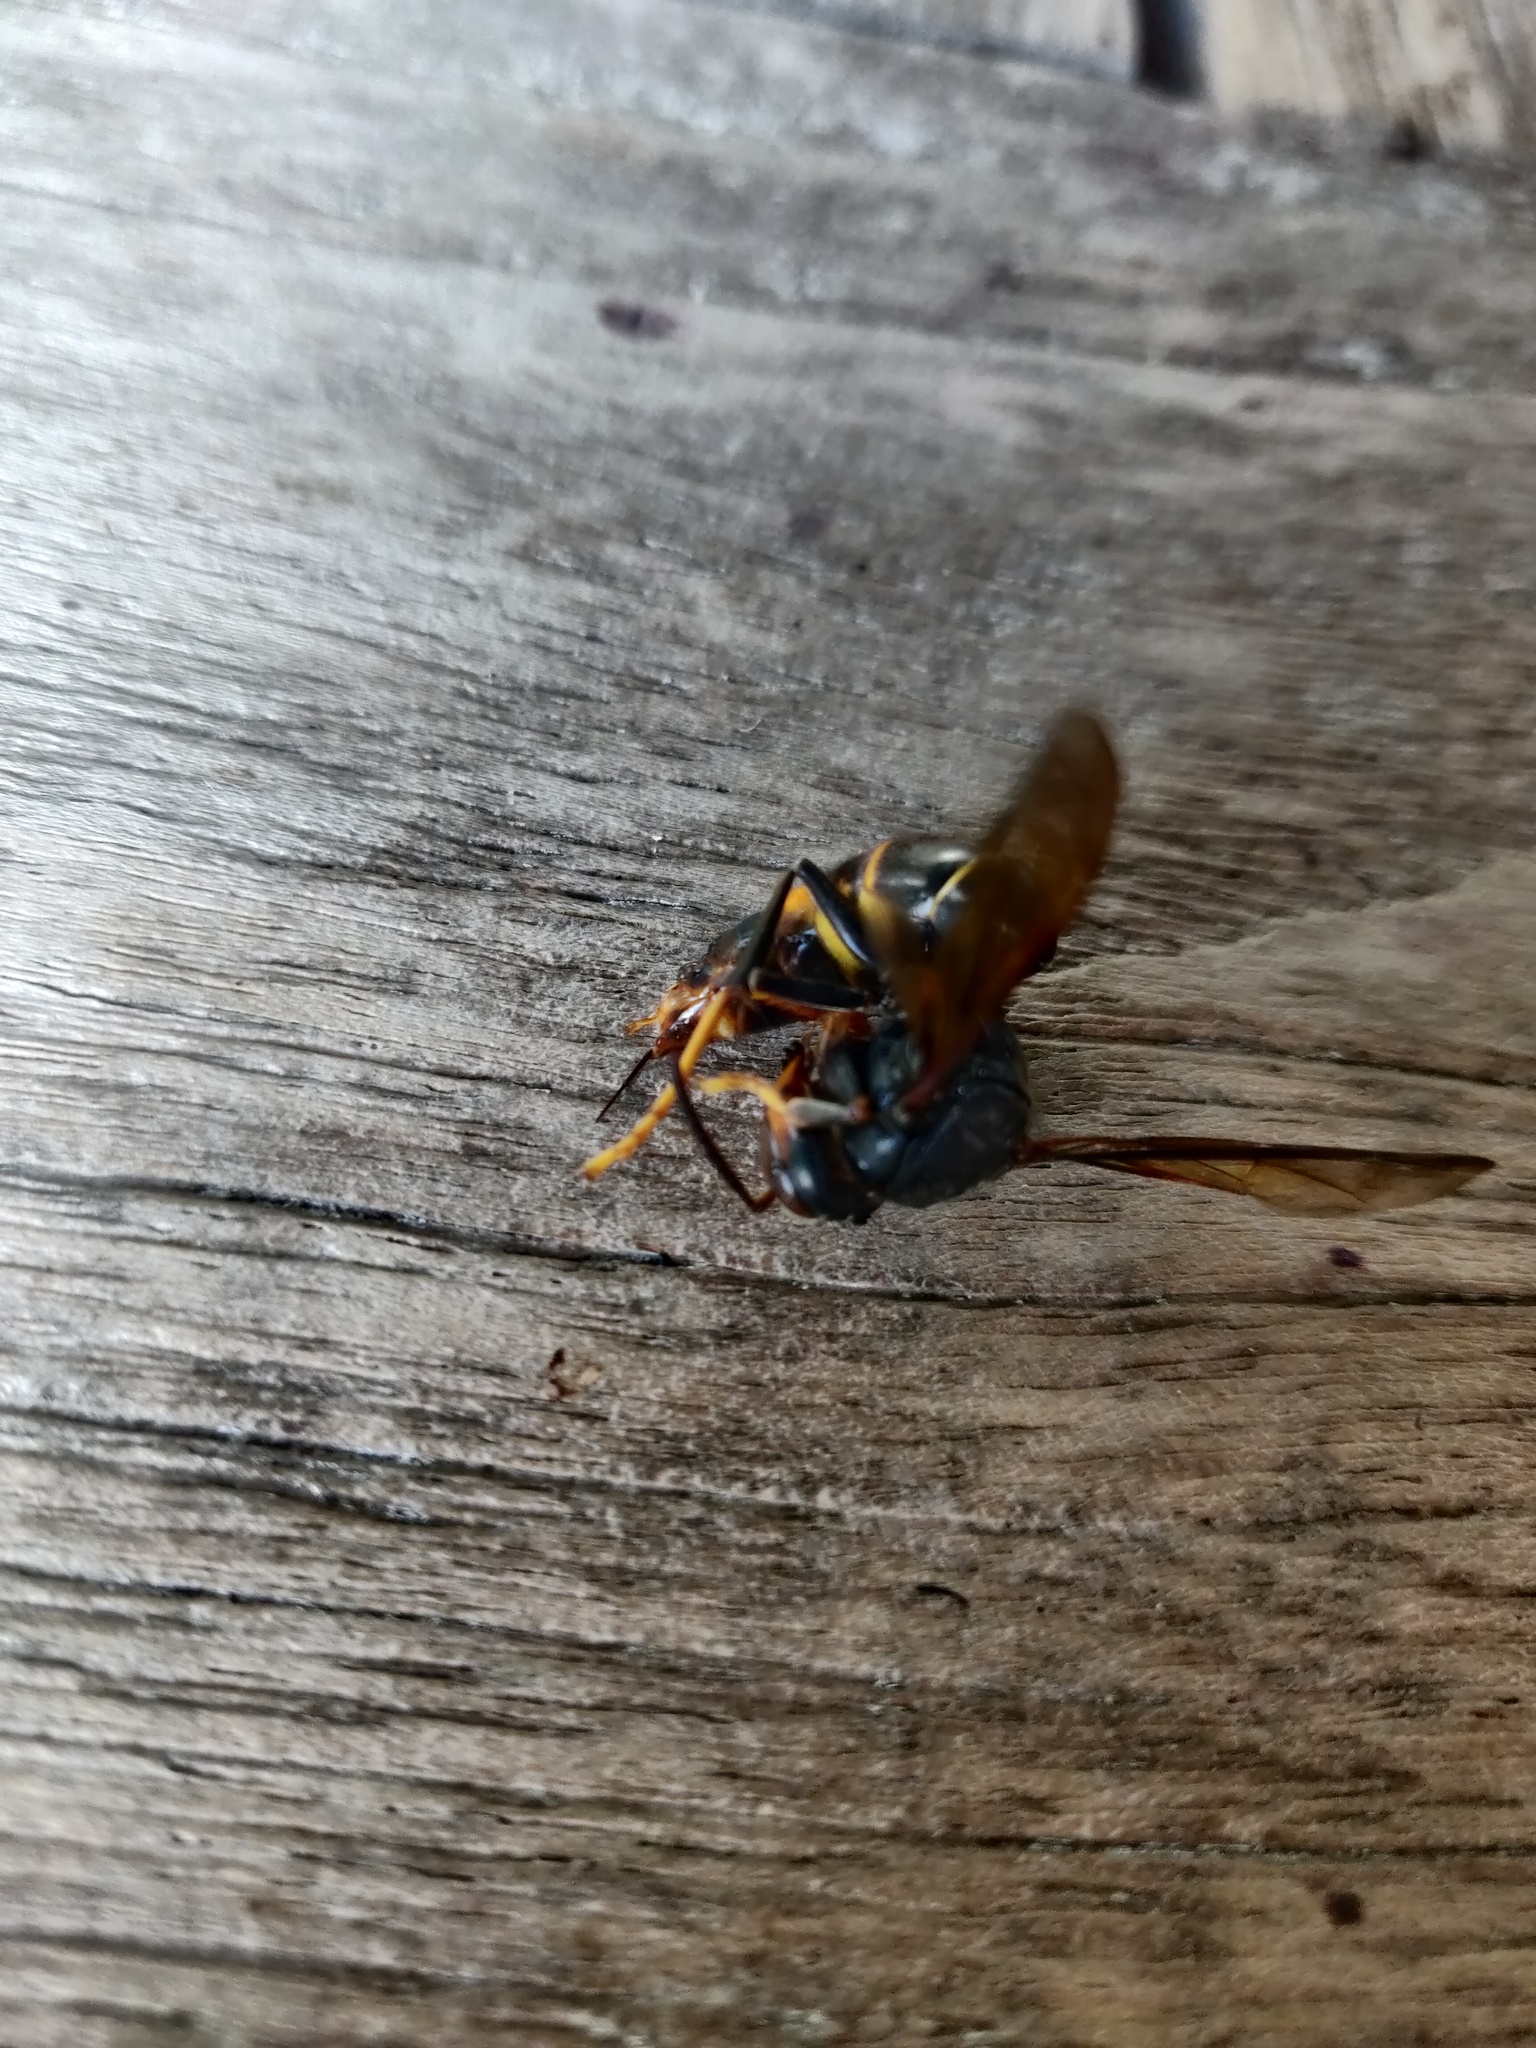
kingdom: Animalia
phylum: Arthropoda
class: Insecta
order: Hymenoptera
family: Vespidae
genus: Vespa
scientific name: Vespa velutina
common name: Asian hornet
